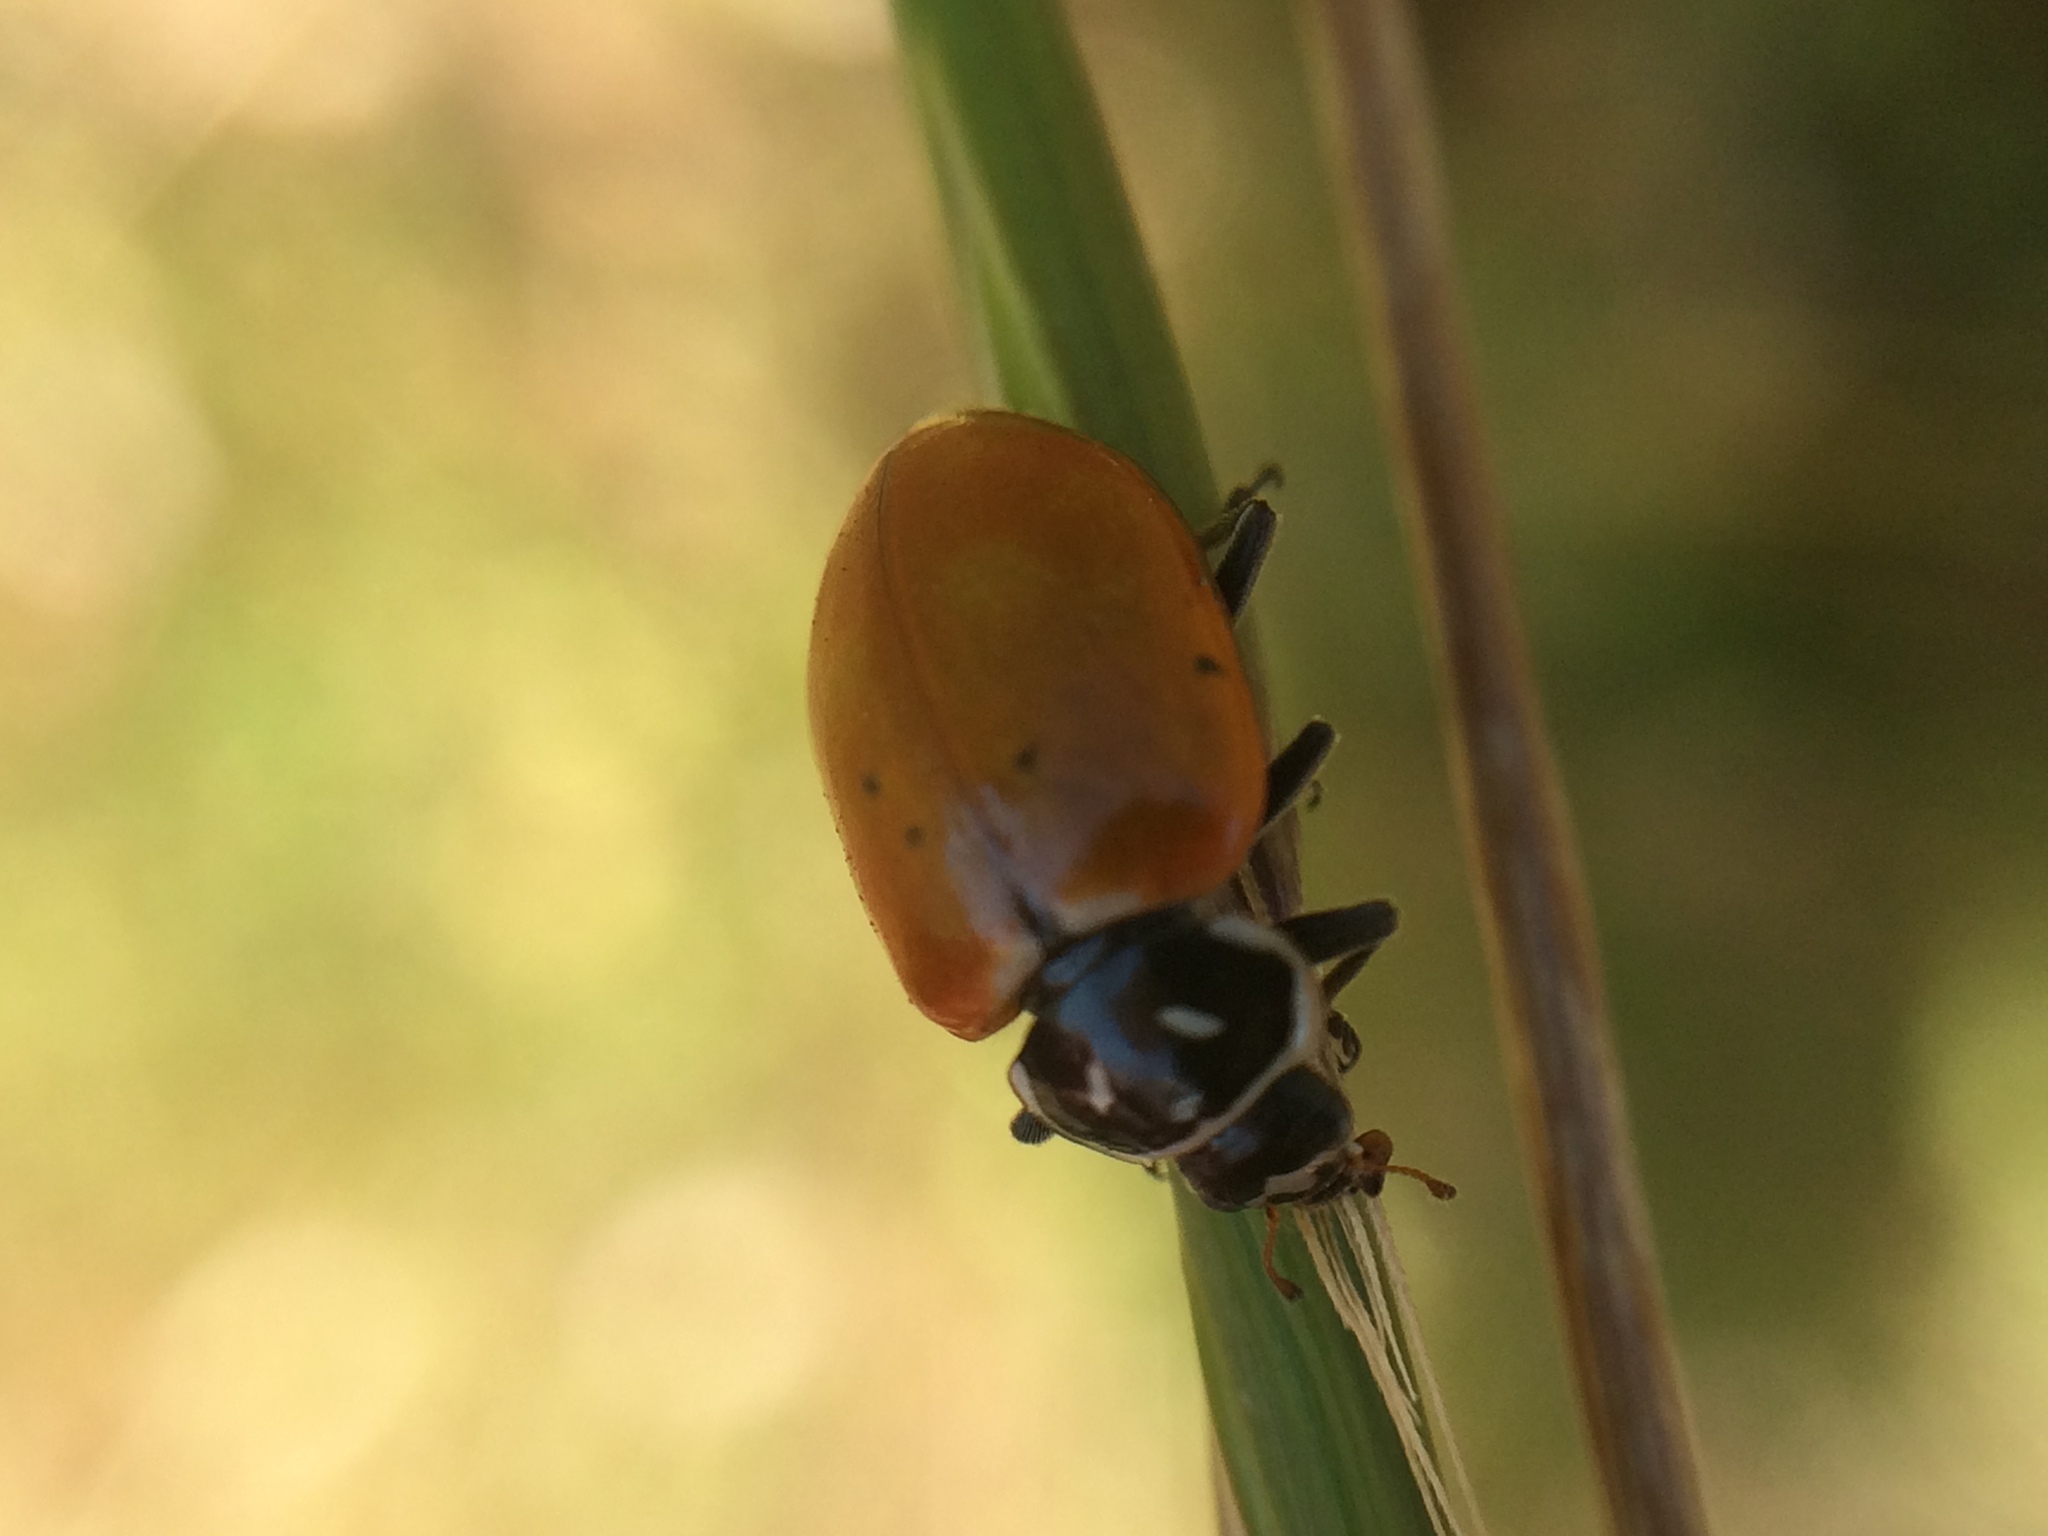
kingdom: Animalia
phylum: Arthropoda
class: Insecta
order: Coleoptera
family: Coccinellidae
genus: Hippodamia
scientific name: Hippodamia convergens
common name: Convergent lady beetle
